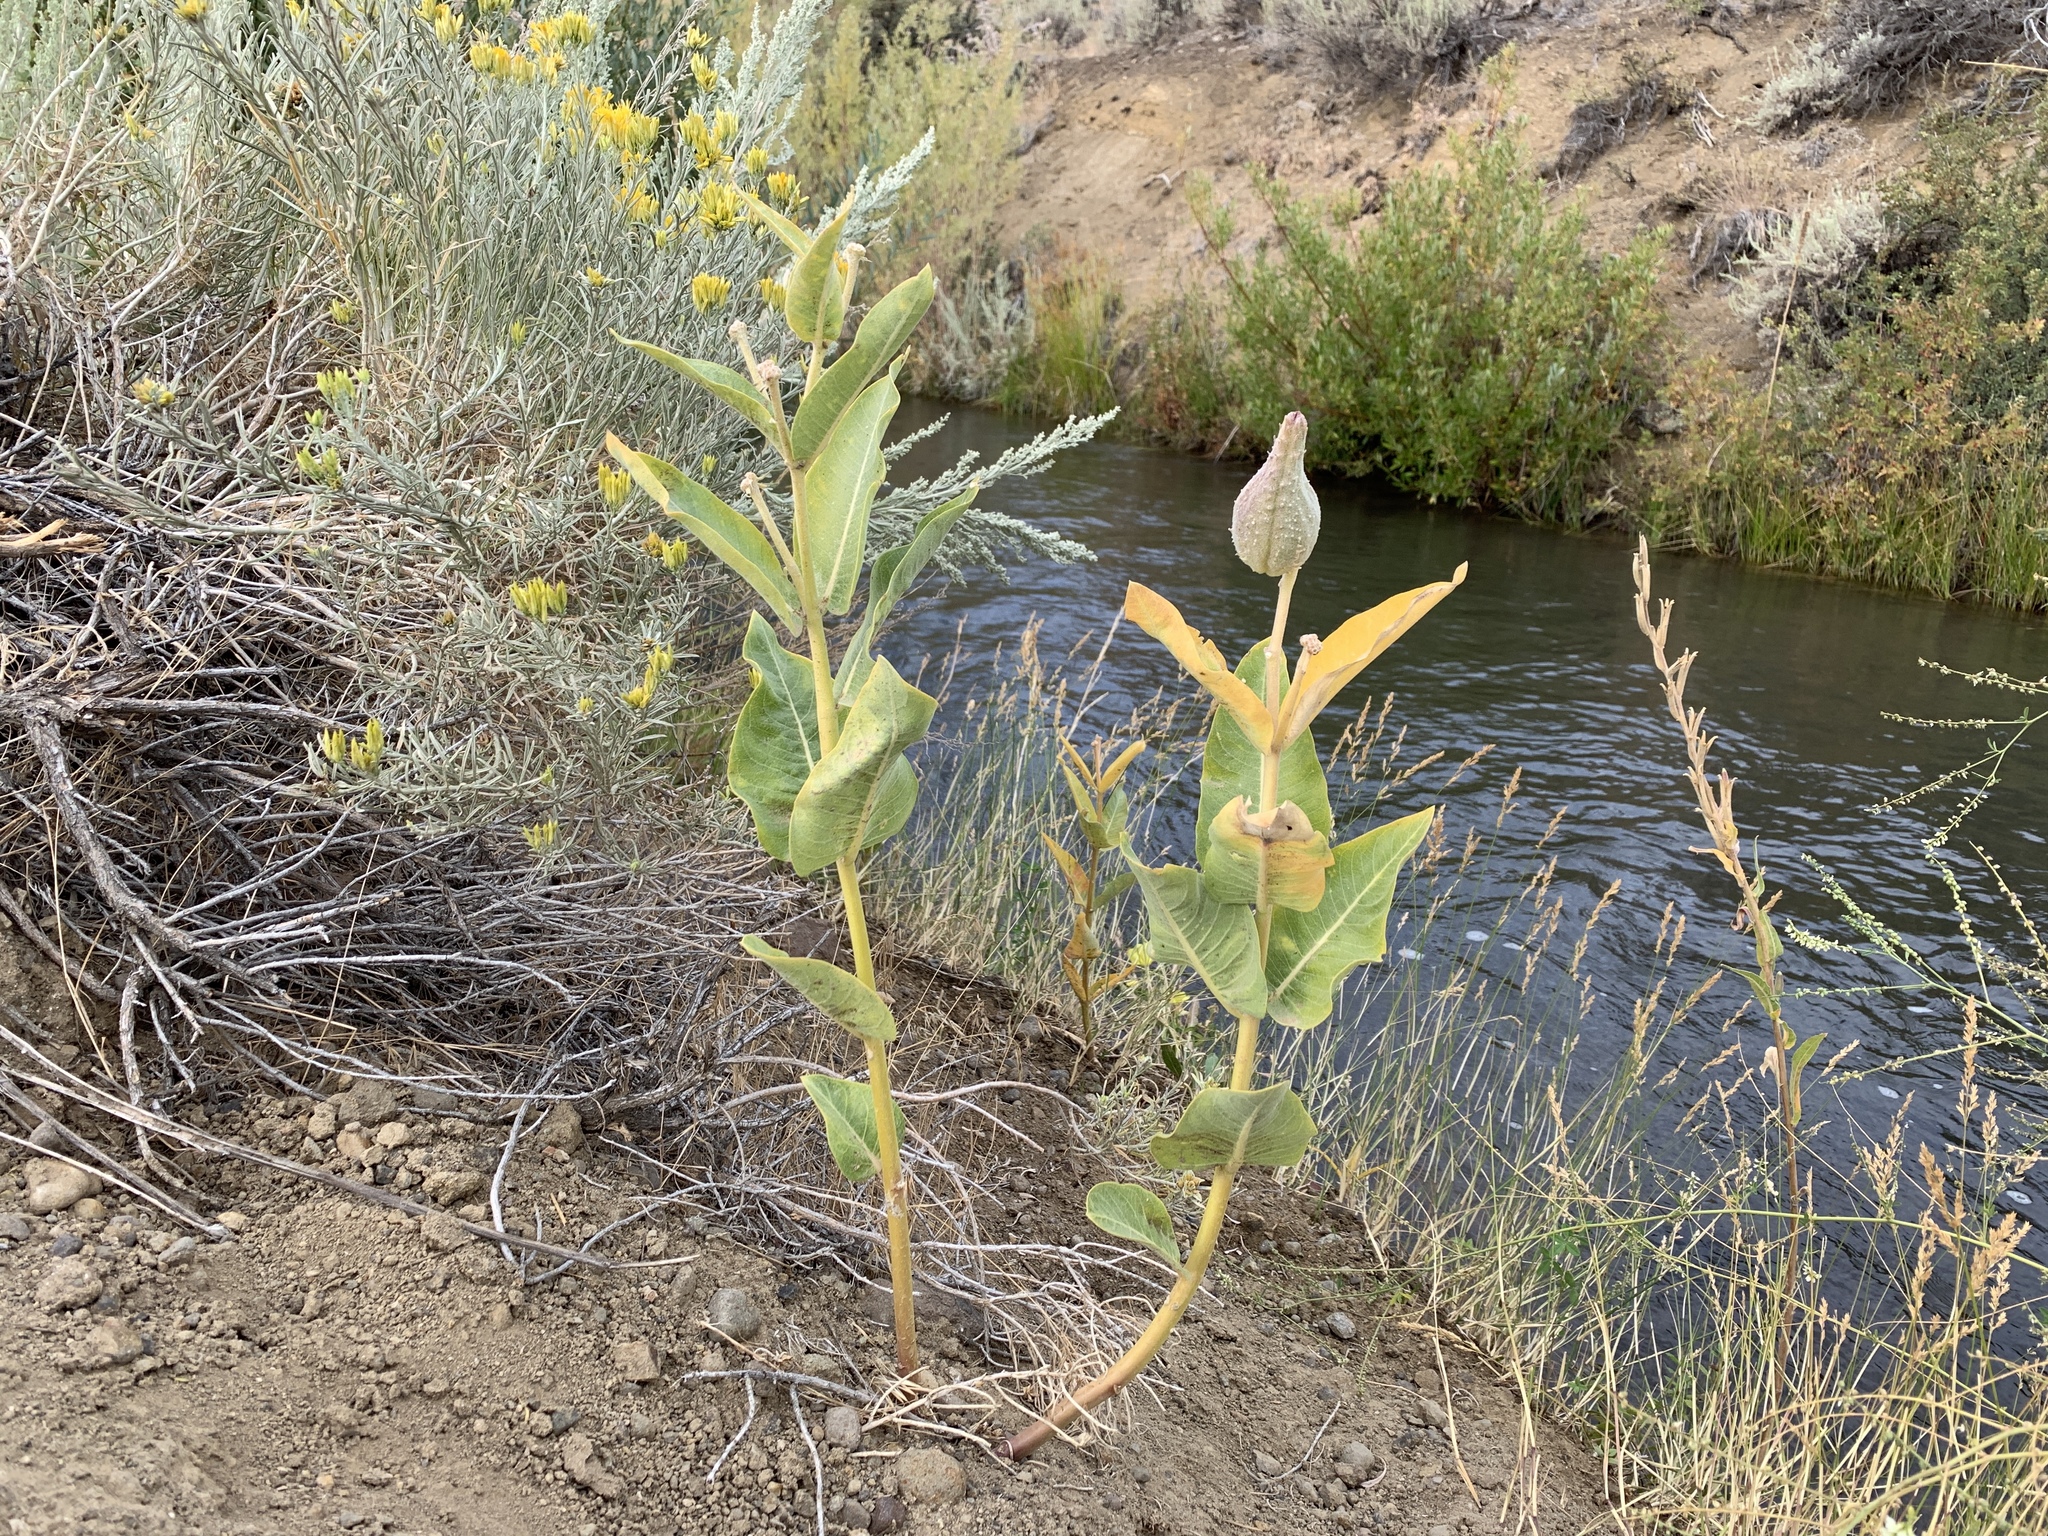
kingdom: Plantae
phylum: Tracheophyta
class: Magnoliopsida
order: Gentianales
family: Apocynaceae
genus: Asclepias
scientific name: Asclepias speciosa
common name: Showy milkweed
